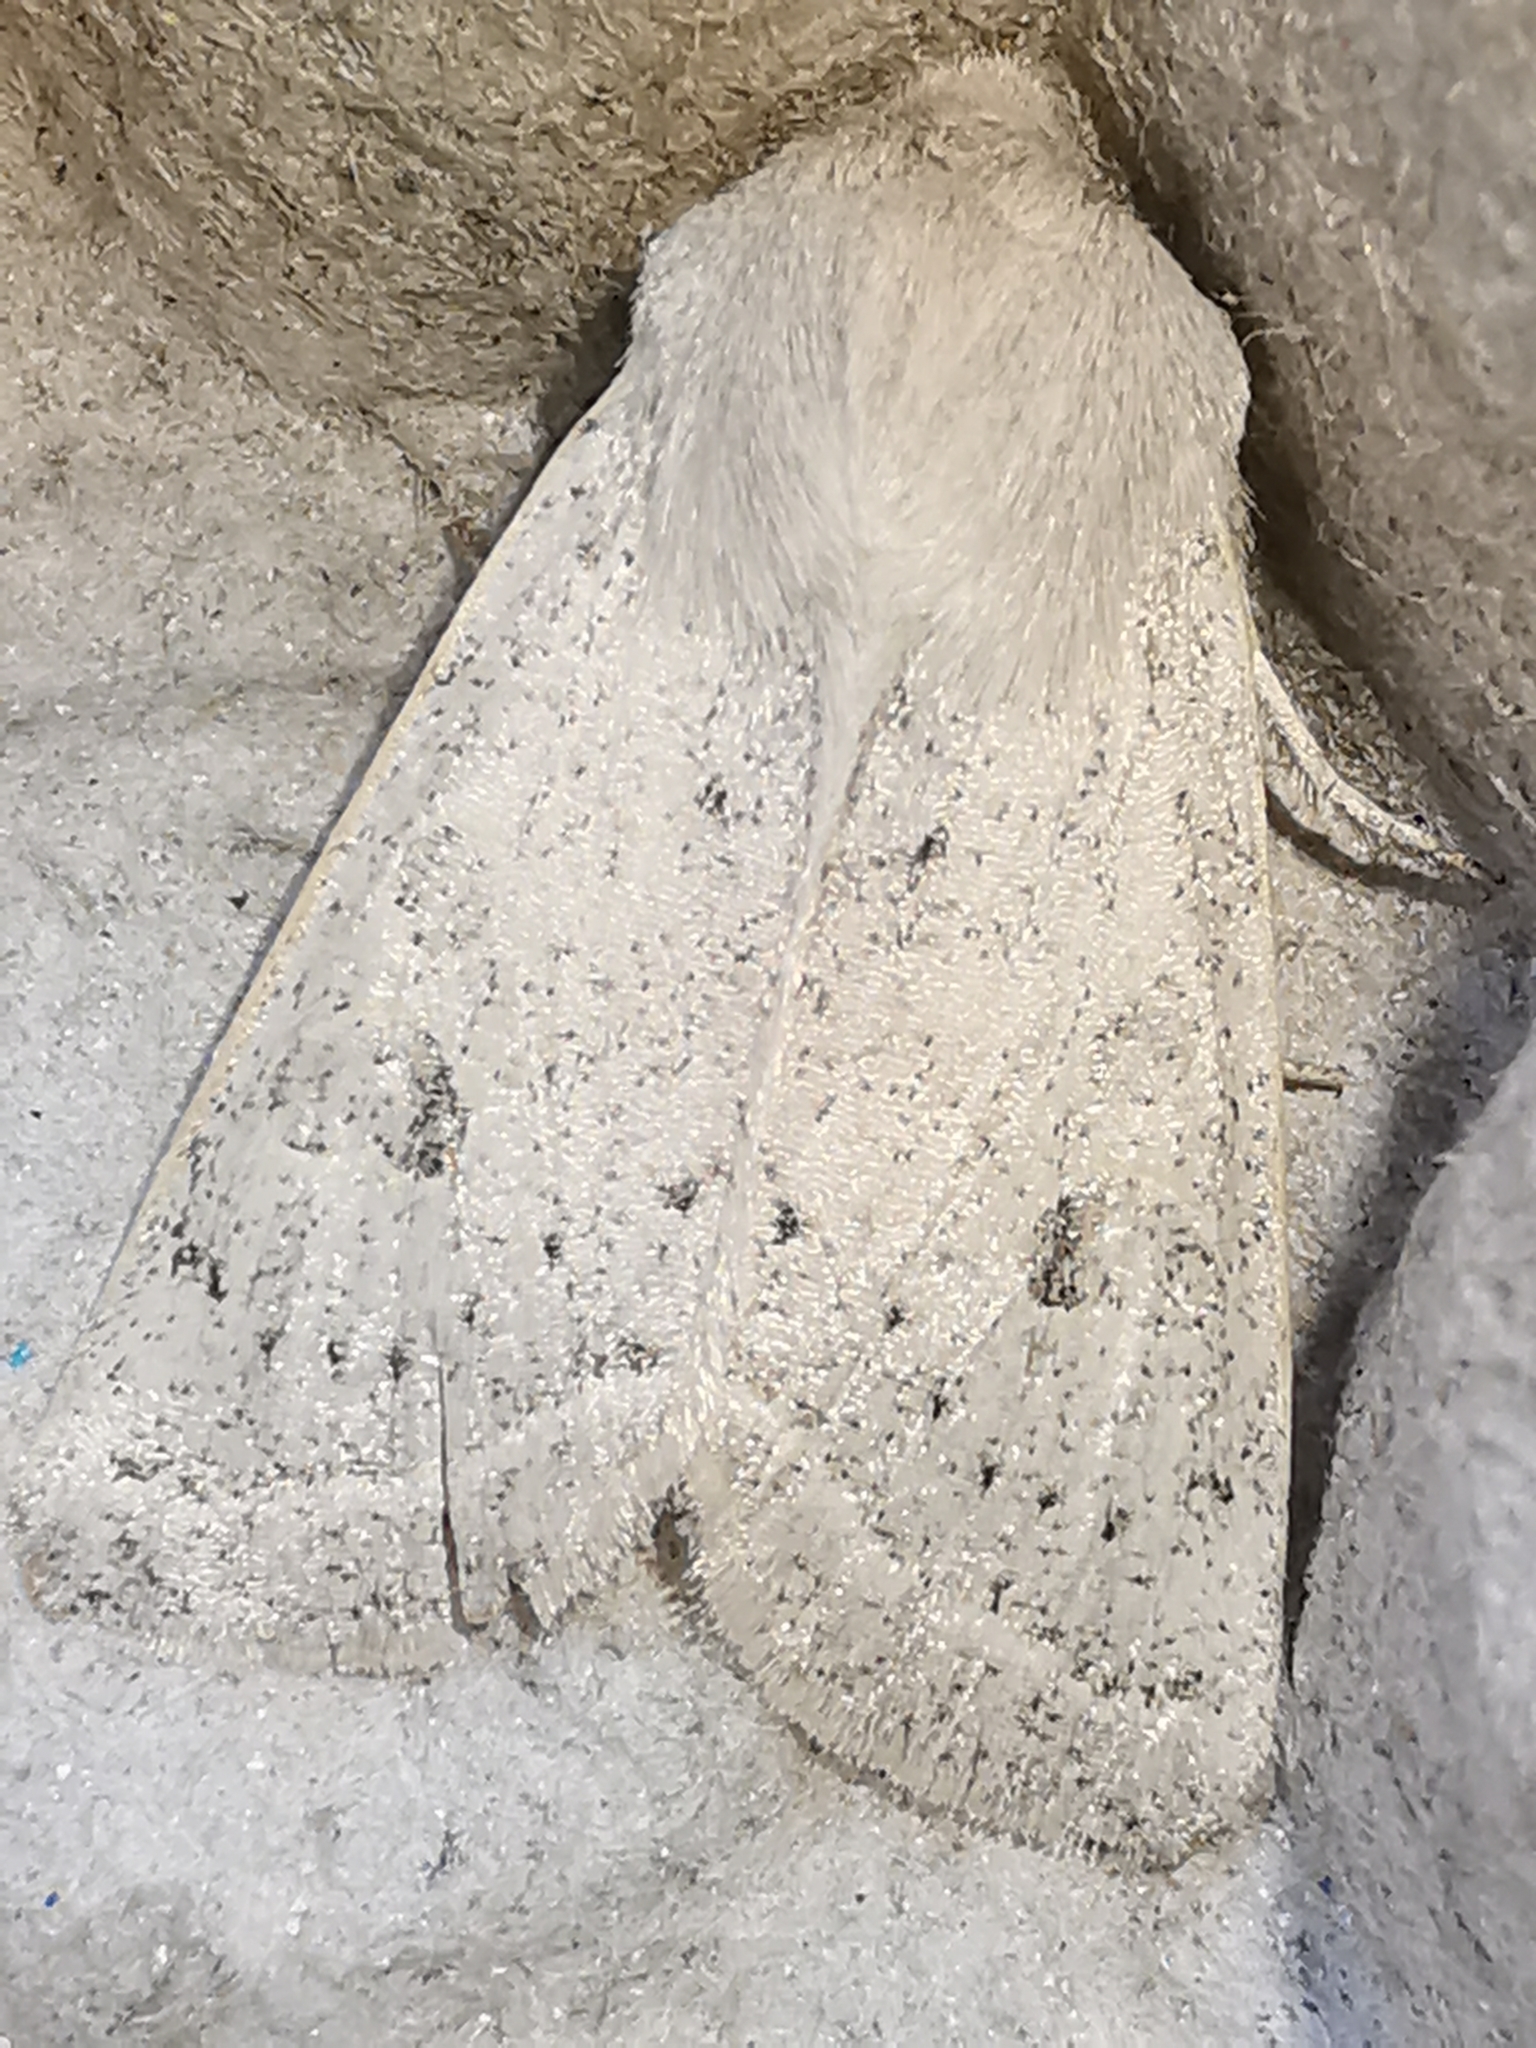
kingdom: Animalia
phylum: Arthropoda
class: Insecta
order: Lepidoptera
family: Noctuidae
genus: Orthosia
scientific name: Orthosia gracilis
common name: Powdered quaker
